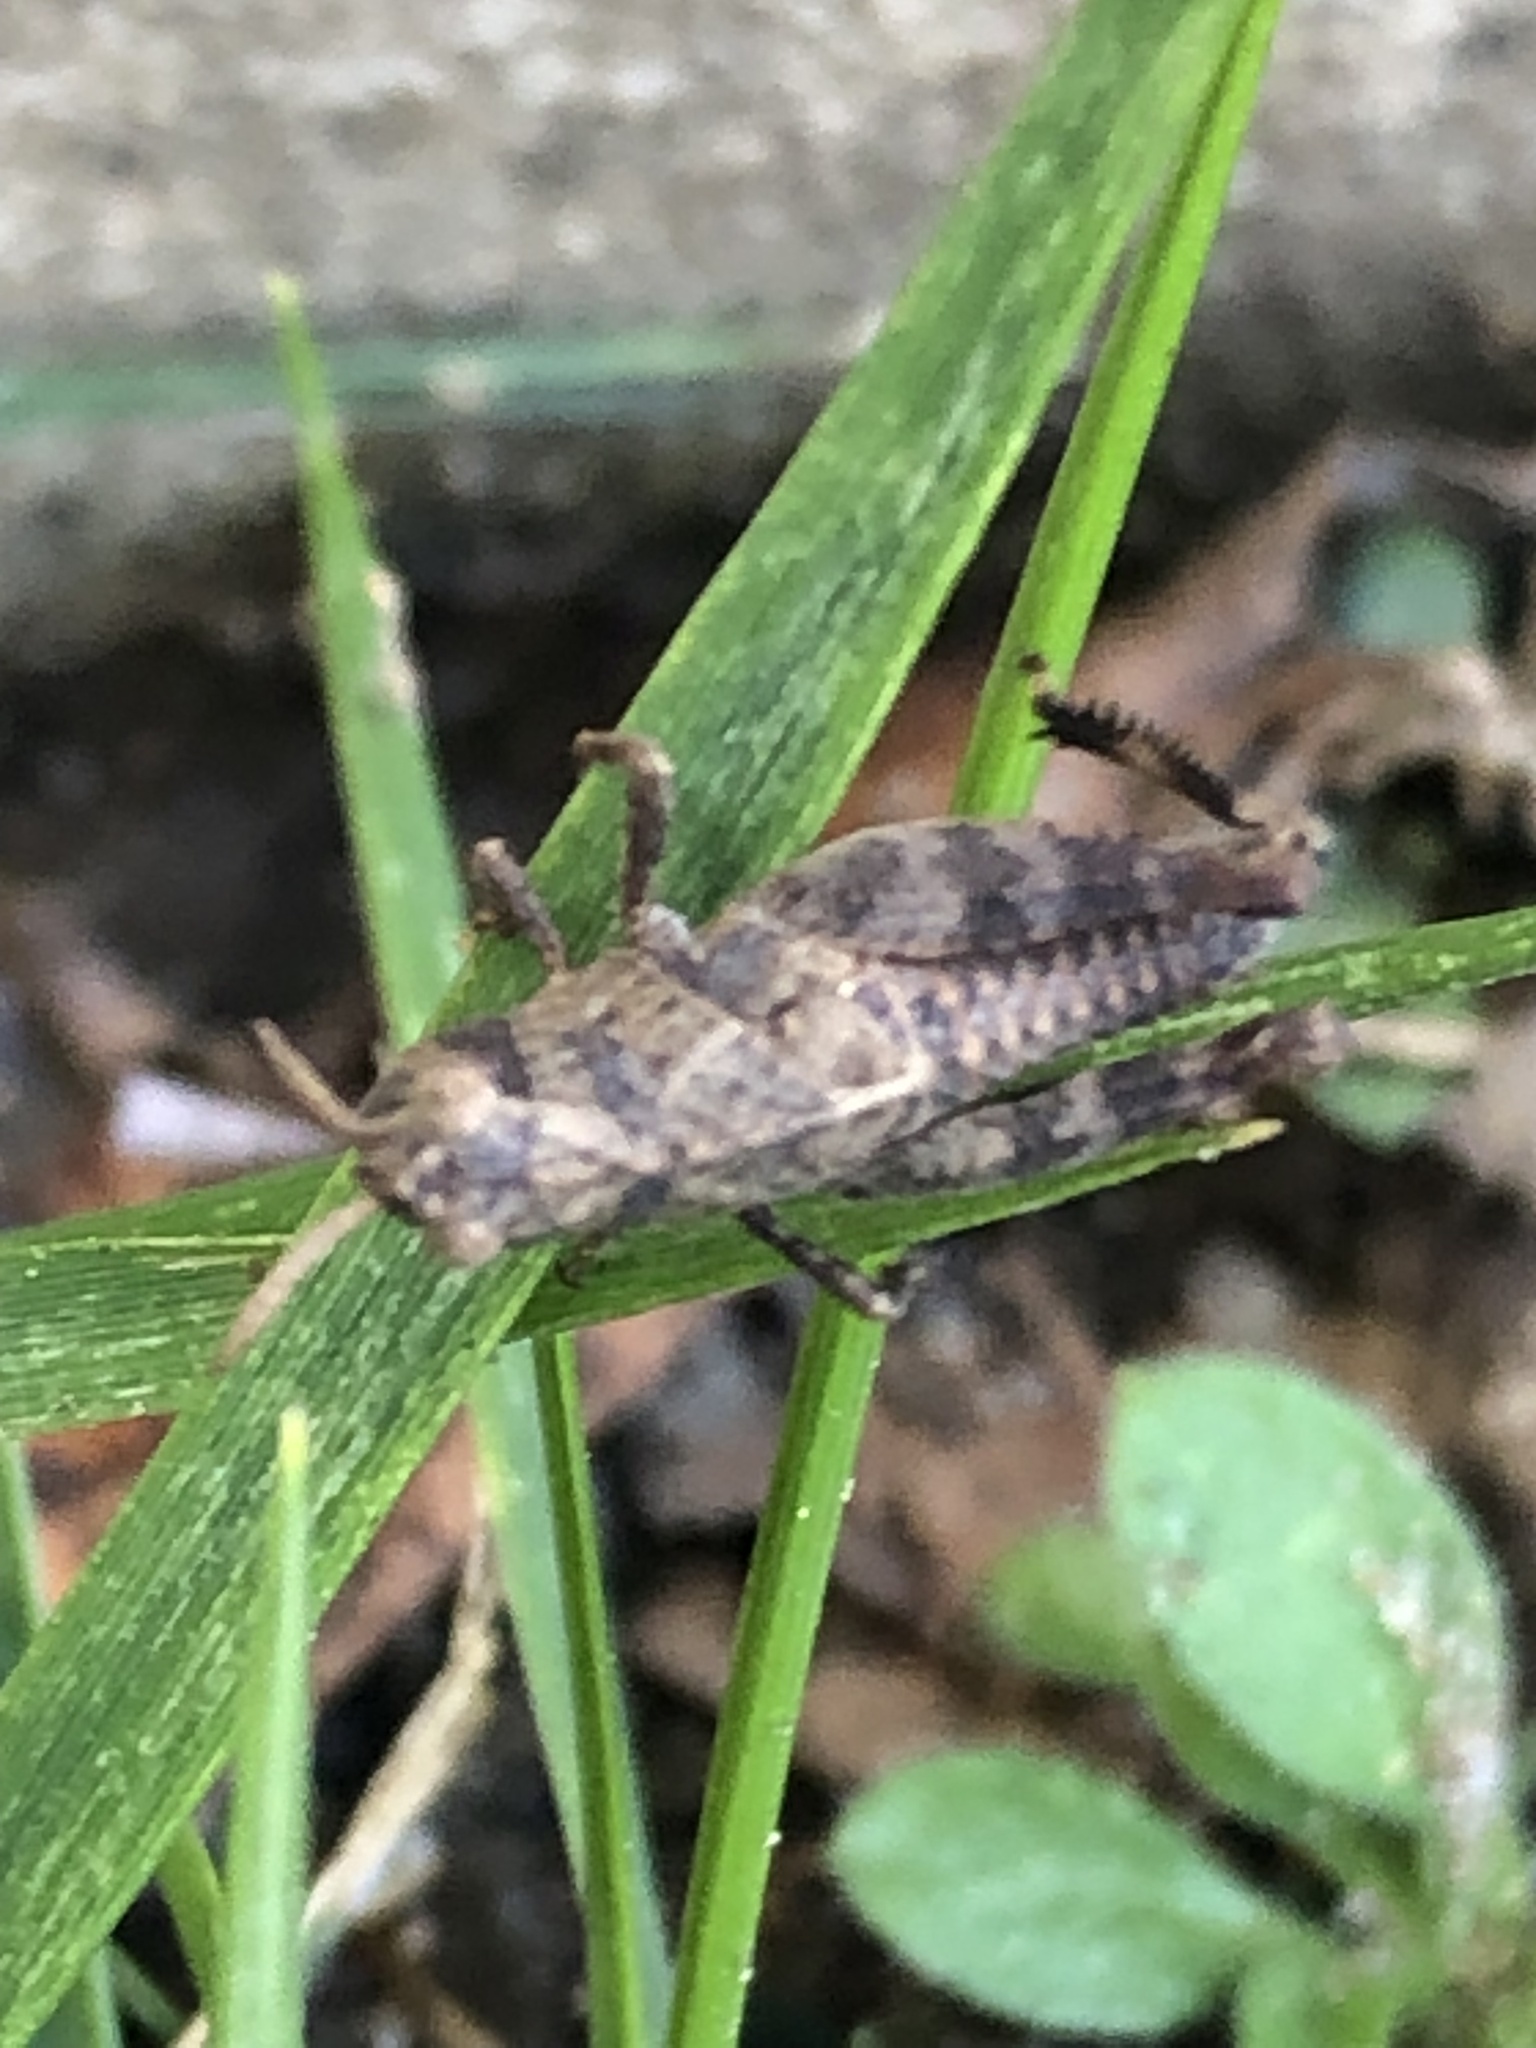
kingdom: Animalia
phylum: Arthropoda
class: Insecta
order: Orthoptera
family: Acrididae
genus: Arphia
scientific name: Arphia sulphurea
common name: Spring yellow-winged locust
